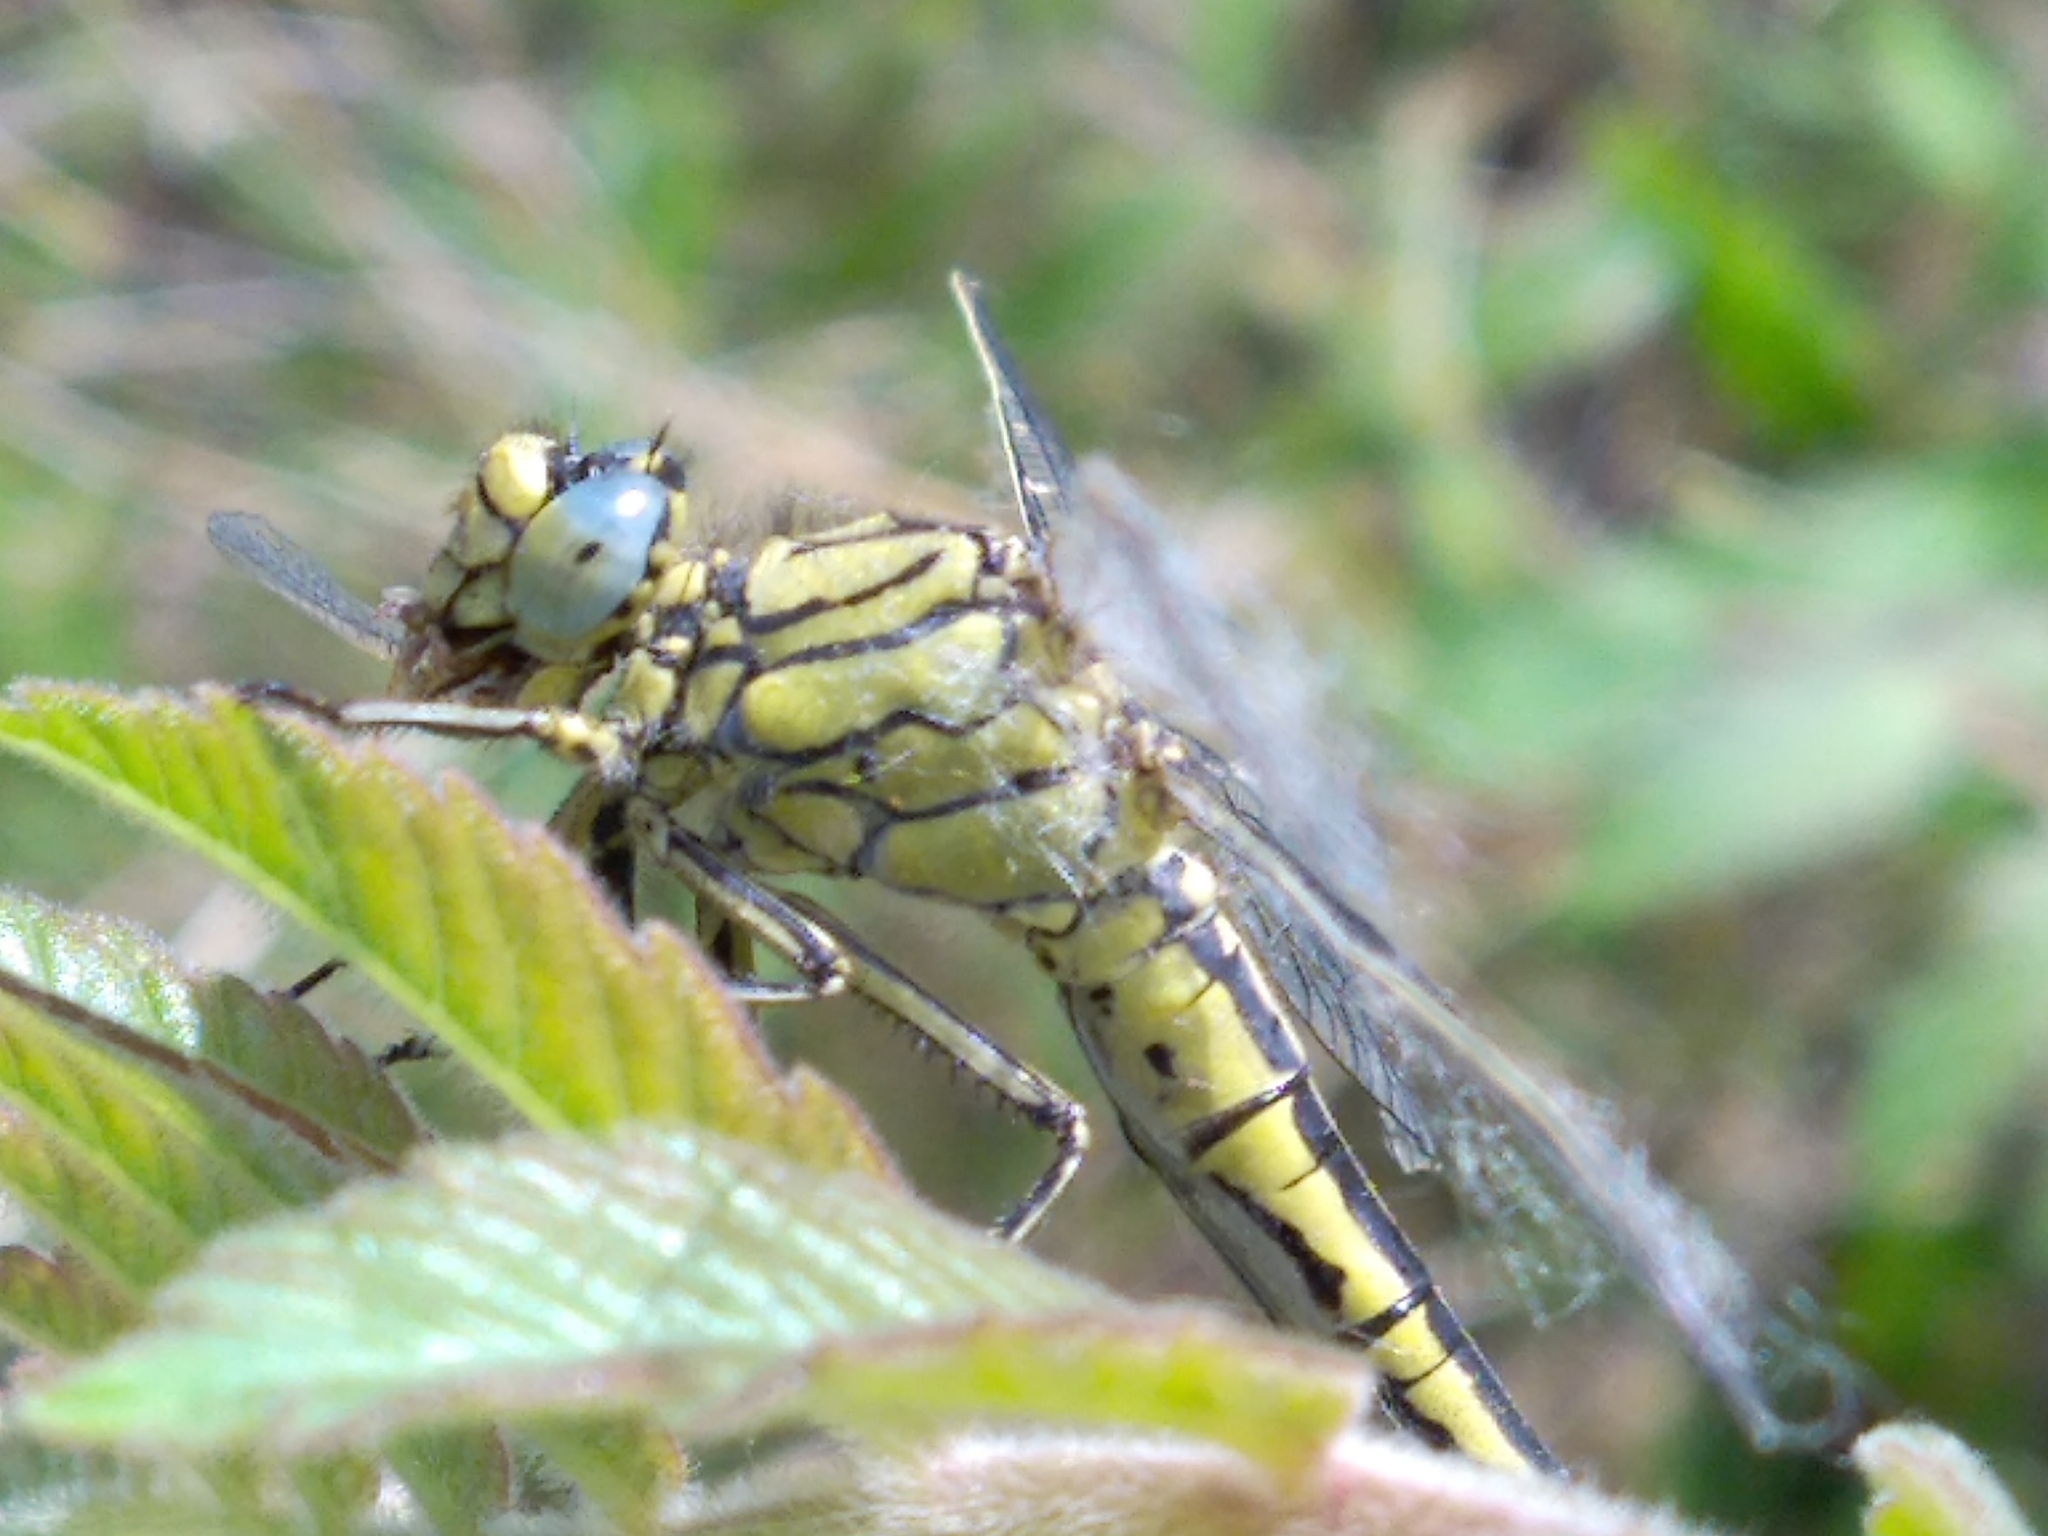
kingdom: Animalia
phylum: Arthropoda
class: Insecta
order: Odonata
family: Gomphidae
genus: Gomphus
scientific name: Gomphus pulchellus
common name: Western clubtail
